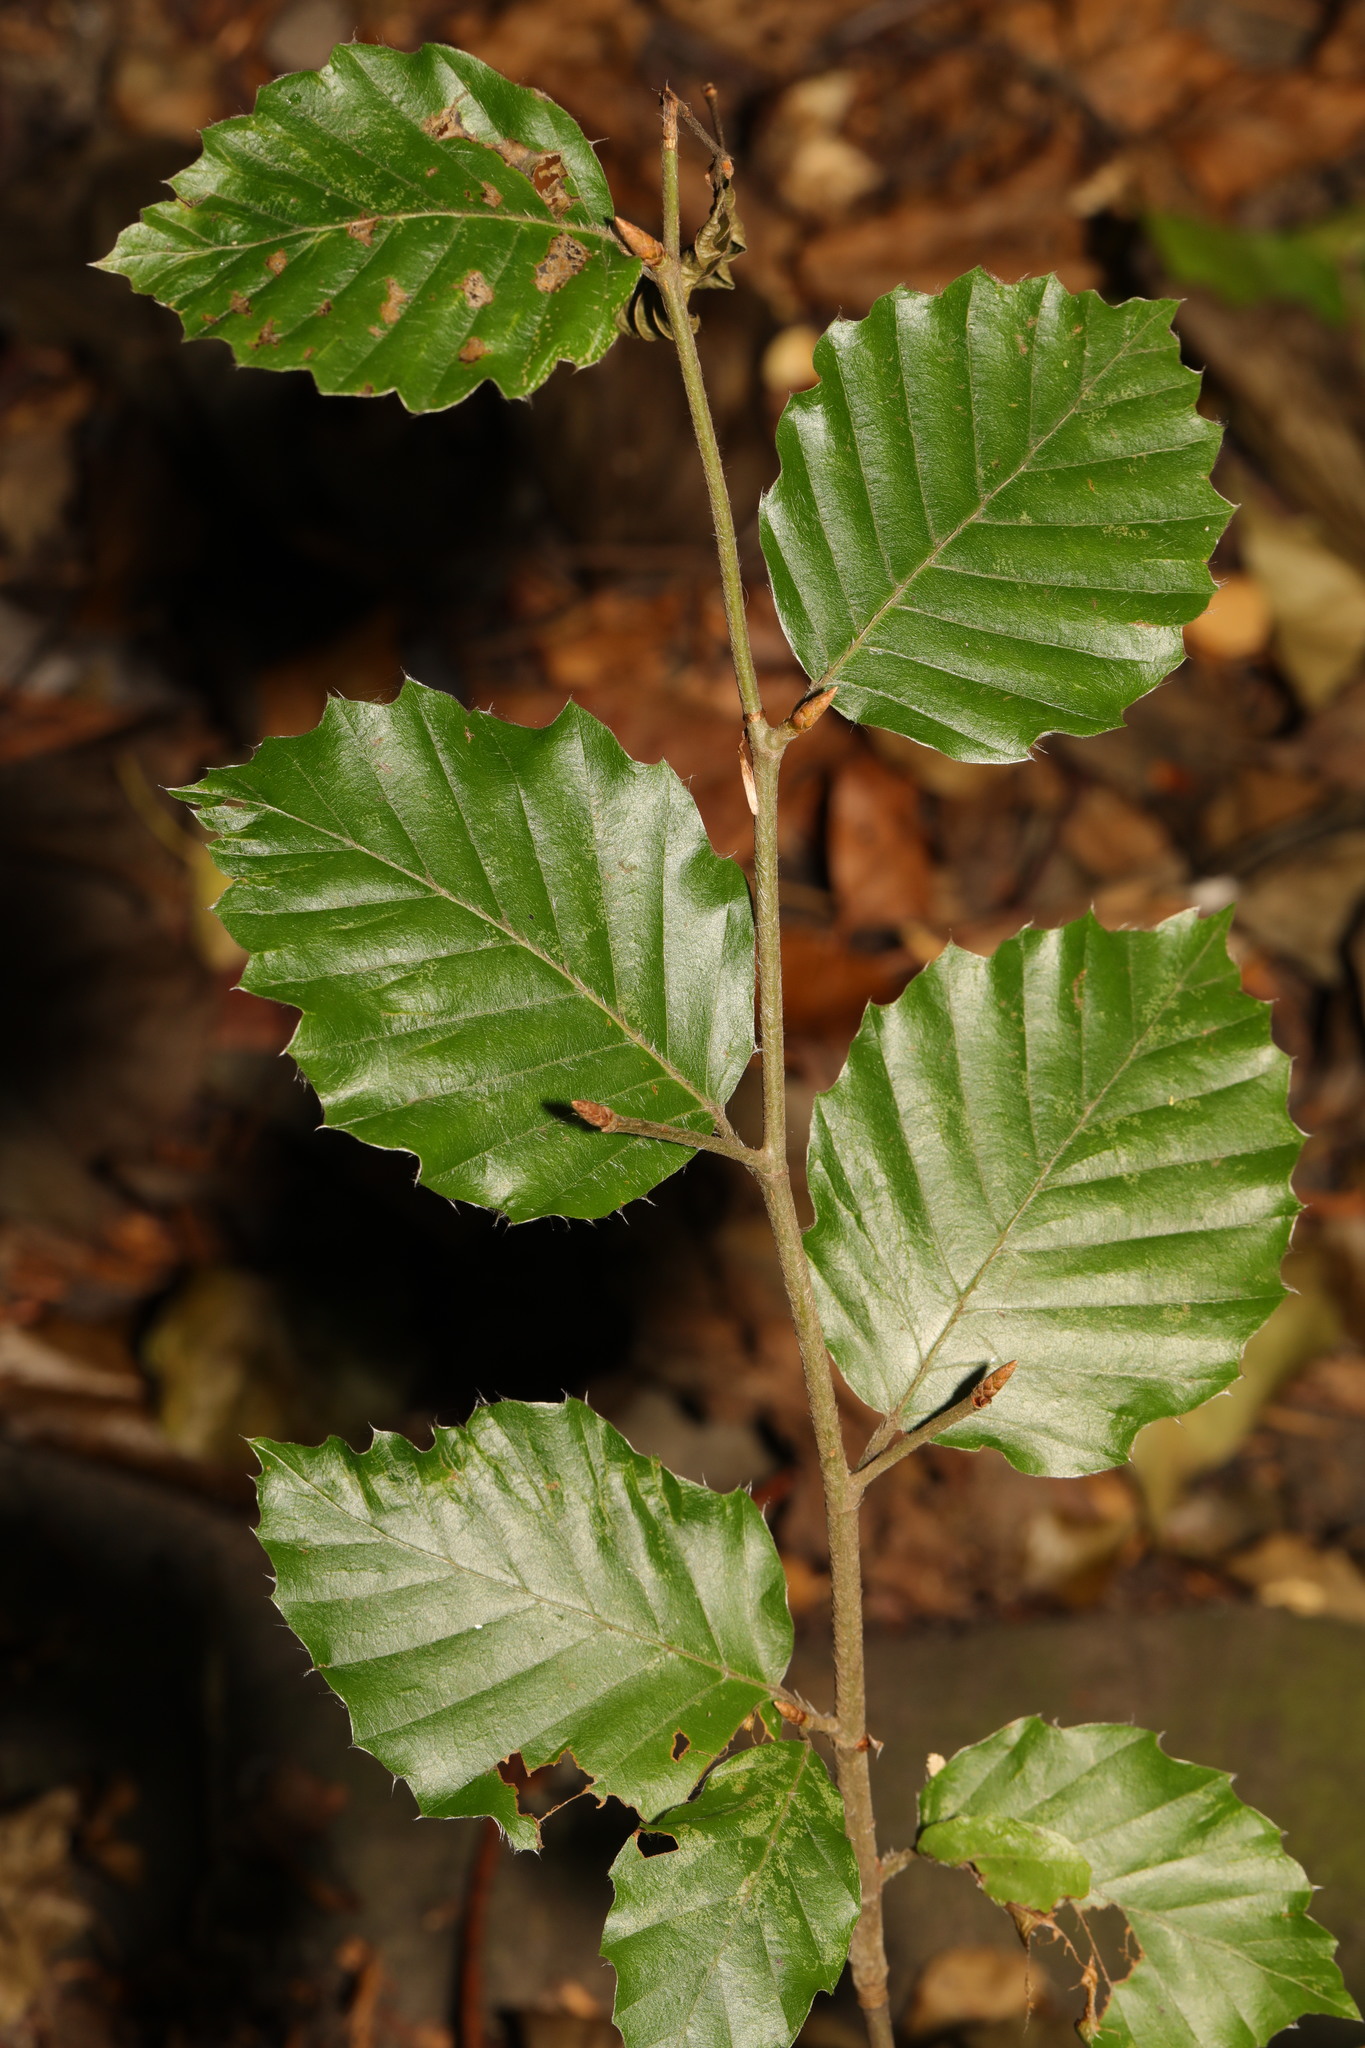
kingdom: Plantae
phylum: Tracheophyta
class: Magnoliopsida
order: Fagales
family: Fagaceae
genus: Fagus
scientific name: Fagus sylvatica
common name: Beech
